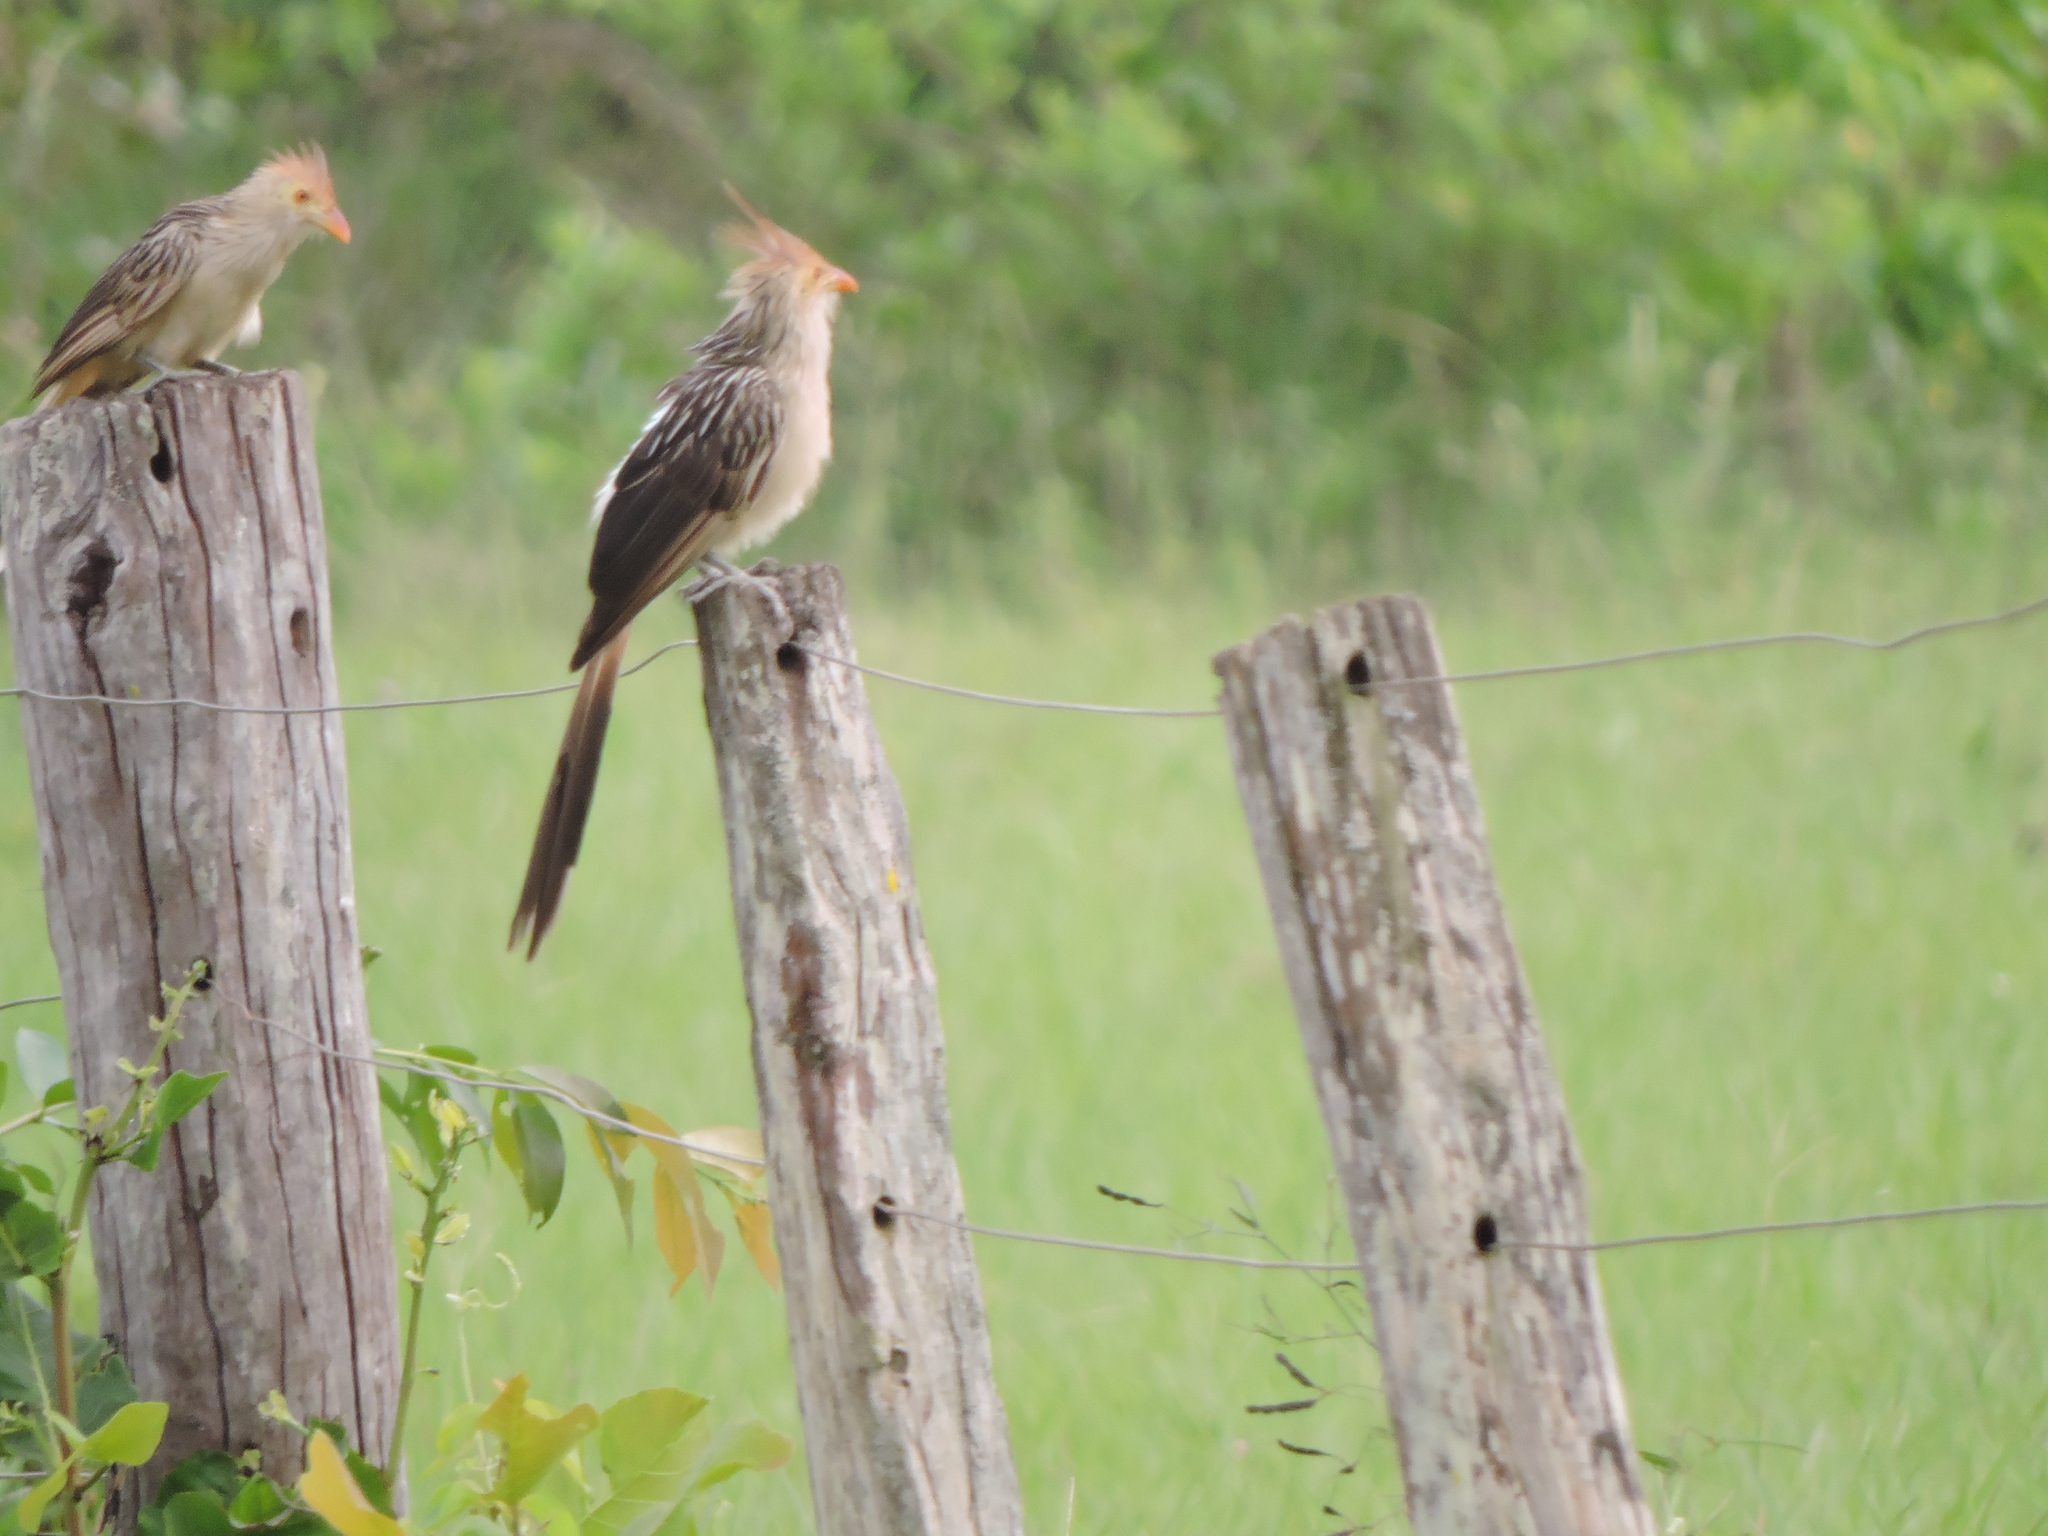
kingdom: Animalia
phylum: Chordata
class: Aves
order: Cuculiformes
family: Cuculidae
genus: Guira
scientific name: Guira guira
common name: Guira cuckoo
